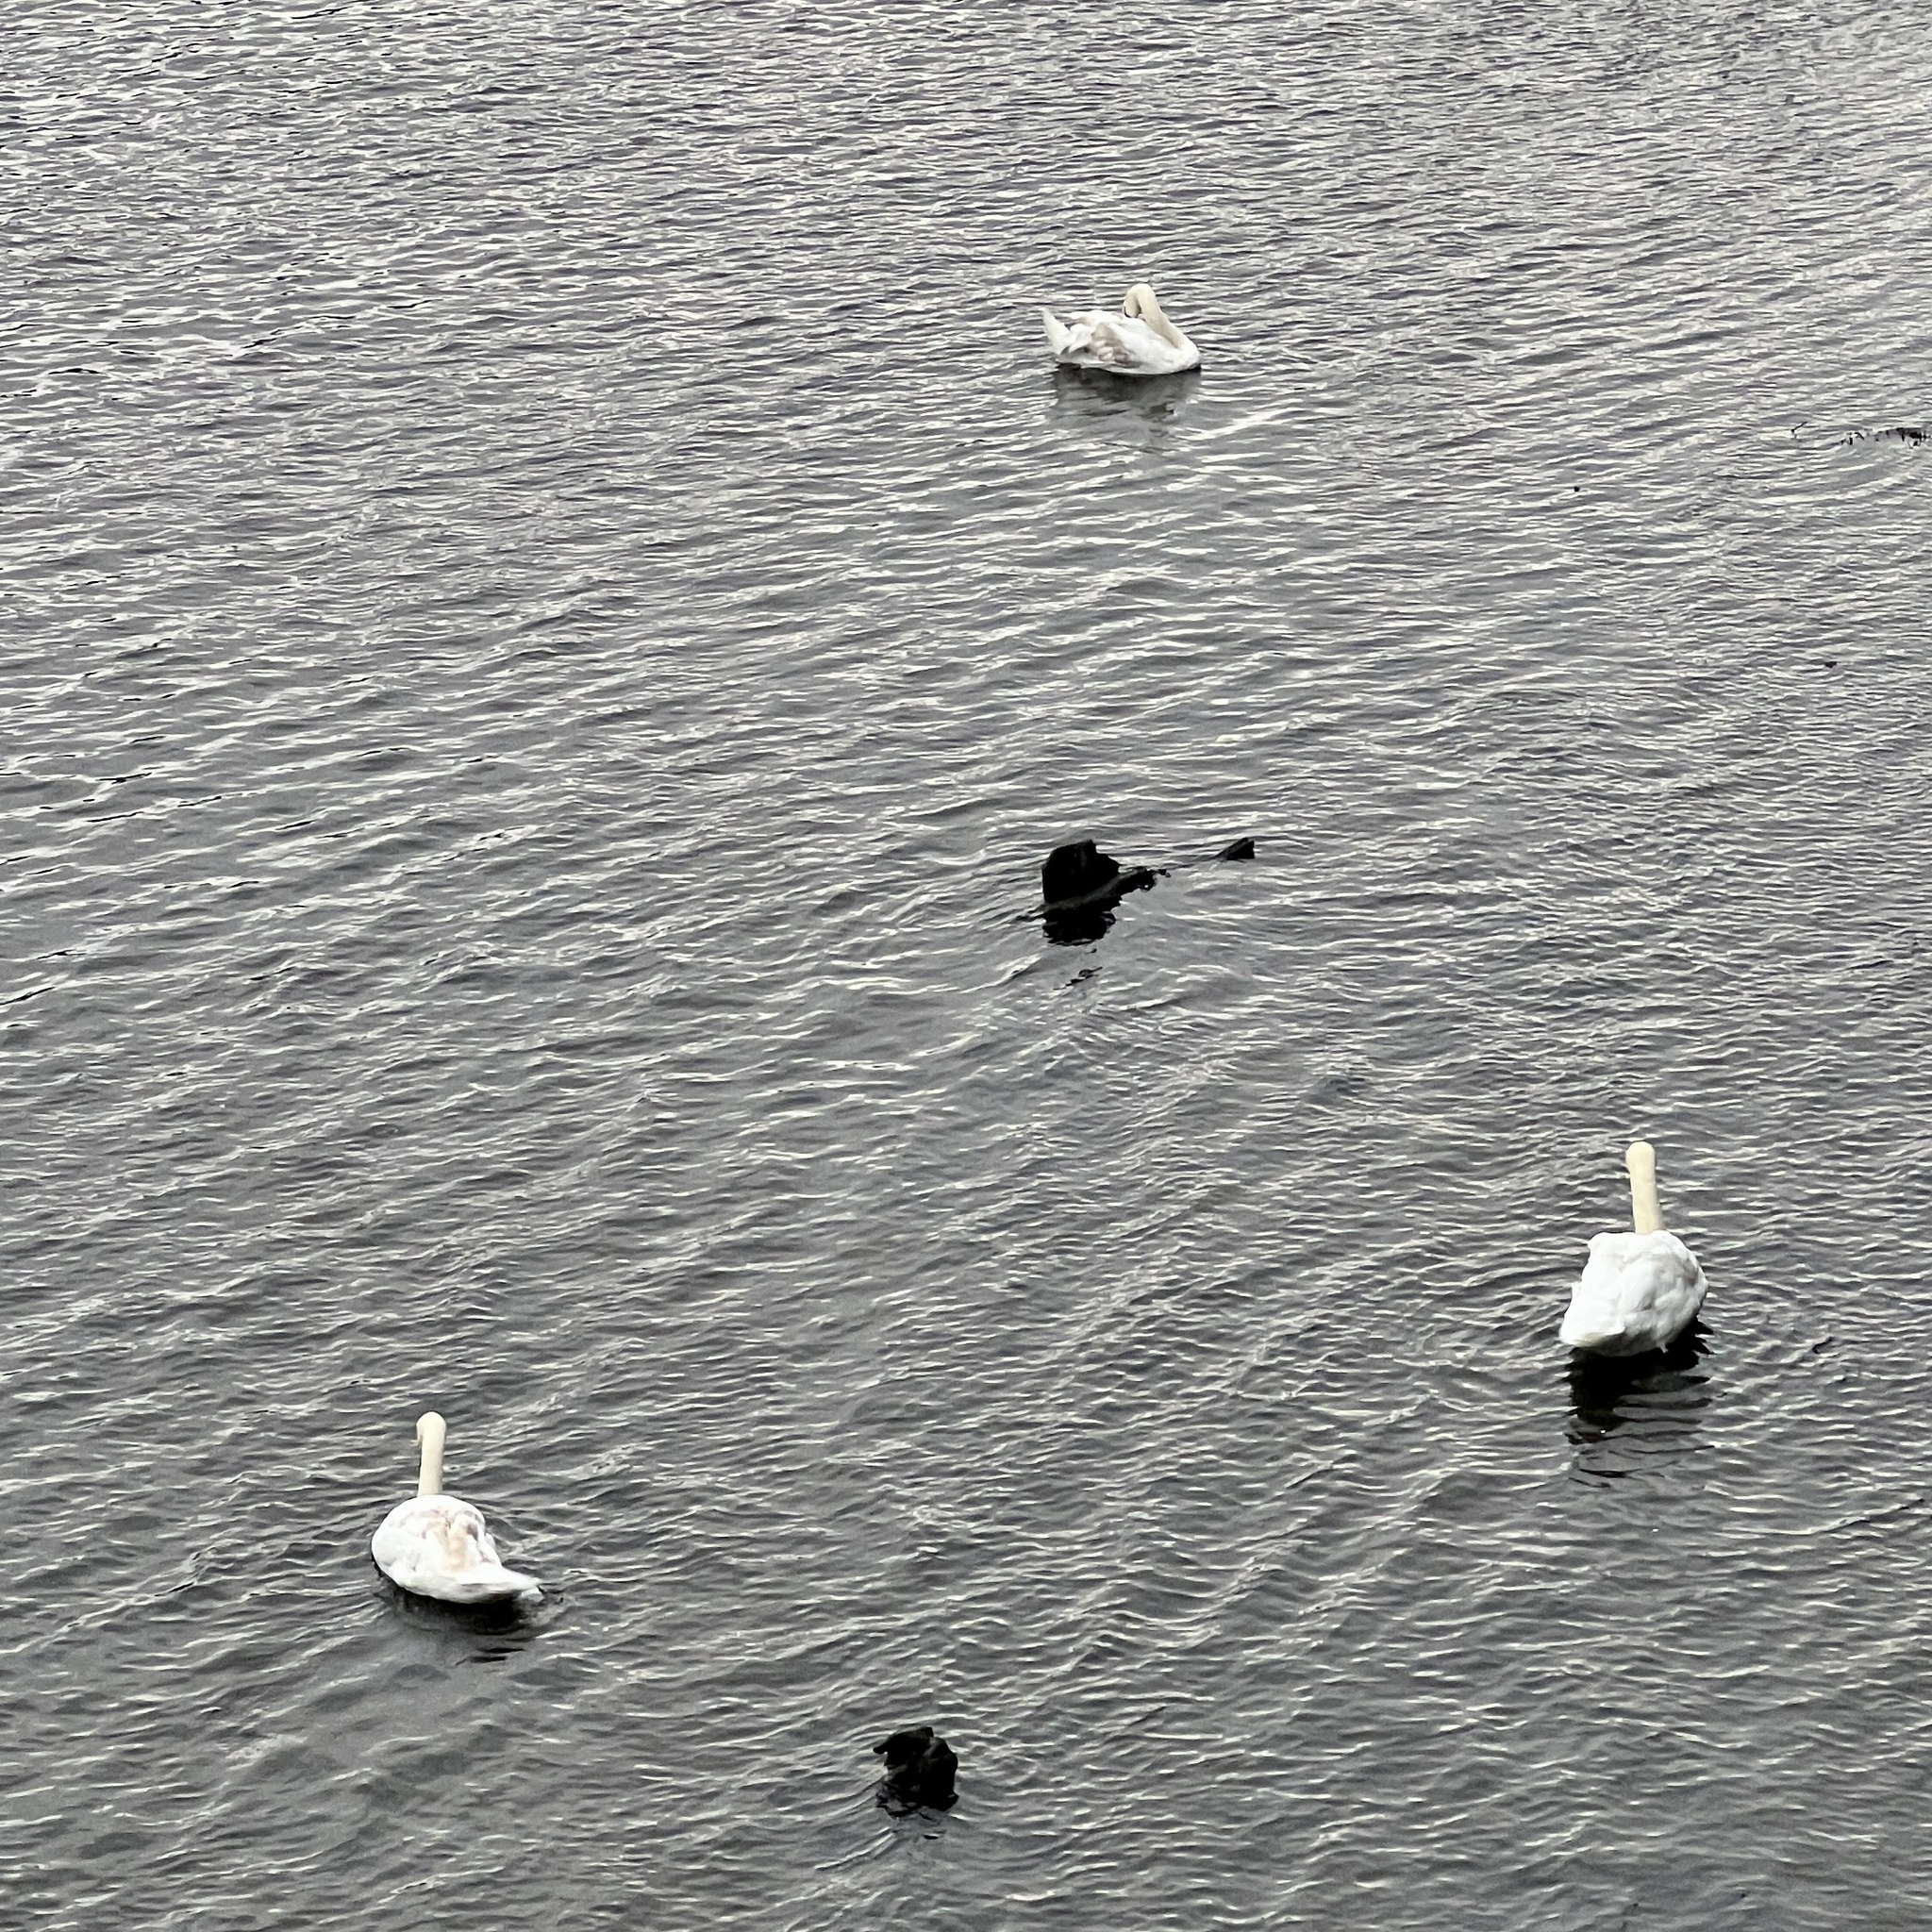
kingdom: Animalia
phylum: Chordata
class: Aves
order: Anseriformes
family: Anatidae
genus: Cygnus
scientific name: Cygnus olor
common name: Mute swan
